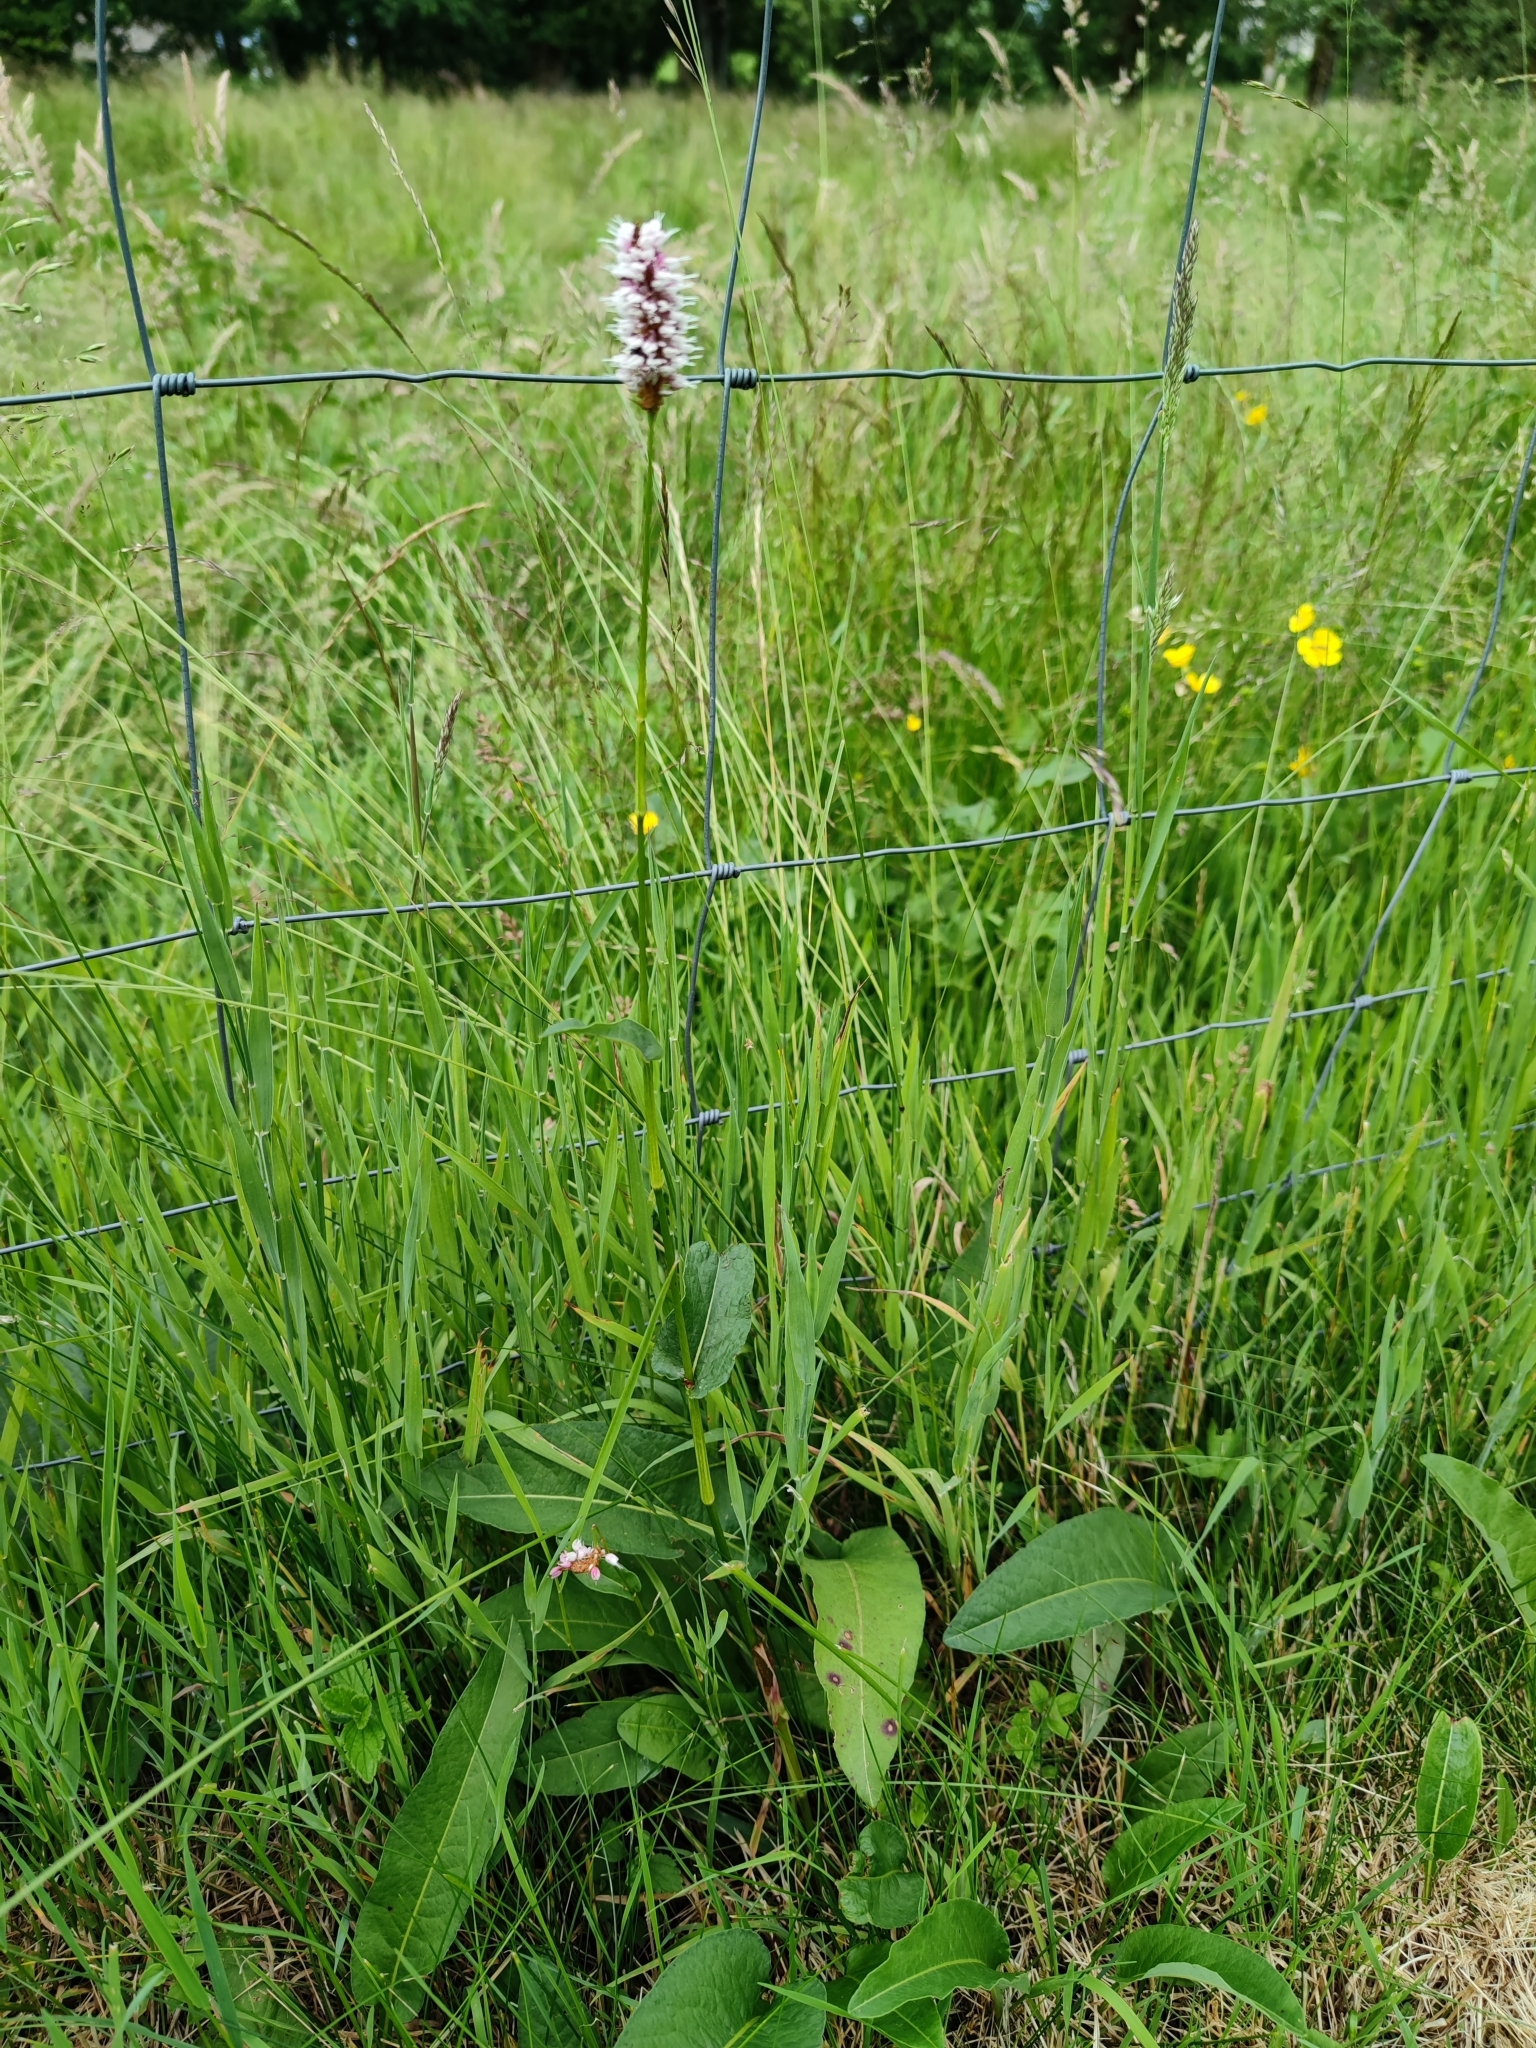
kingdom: Plantae
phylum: Tracheophyta
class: Magnoliopsida
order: Caryophyllales
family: Polygonaceae
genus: Bistorta
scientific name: Bistorta officinalis
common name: Common bistort
